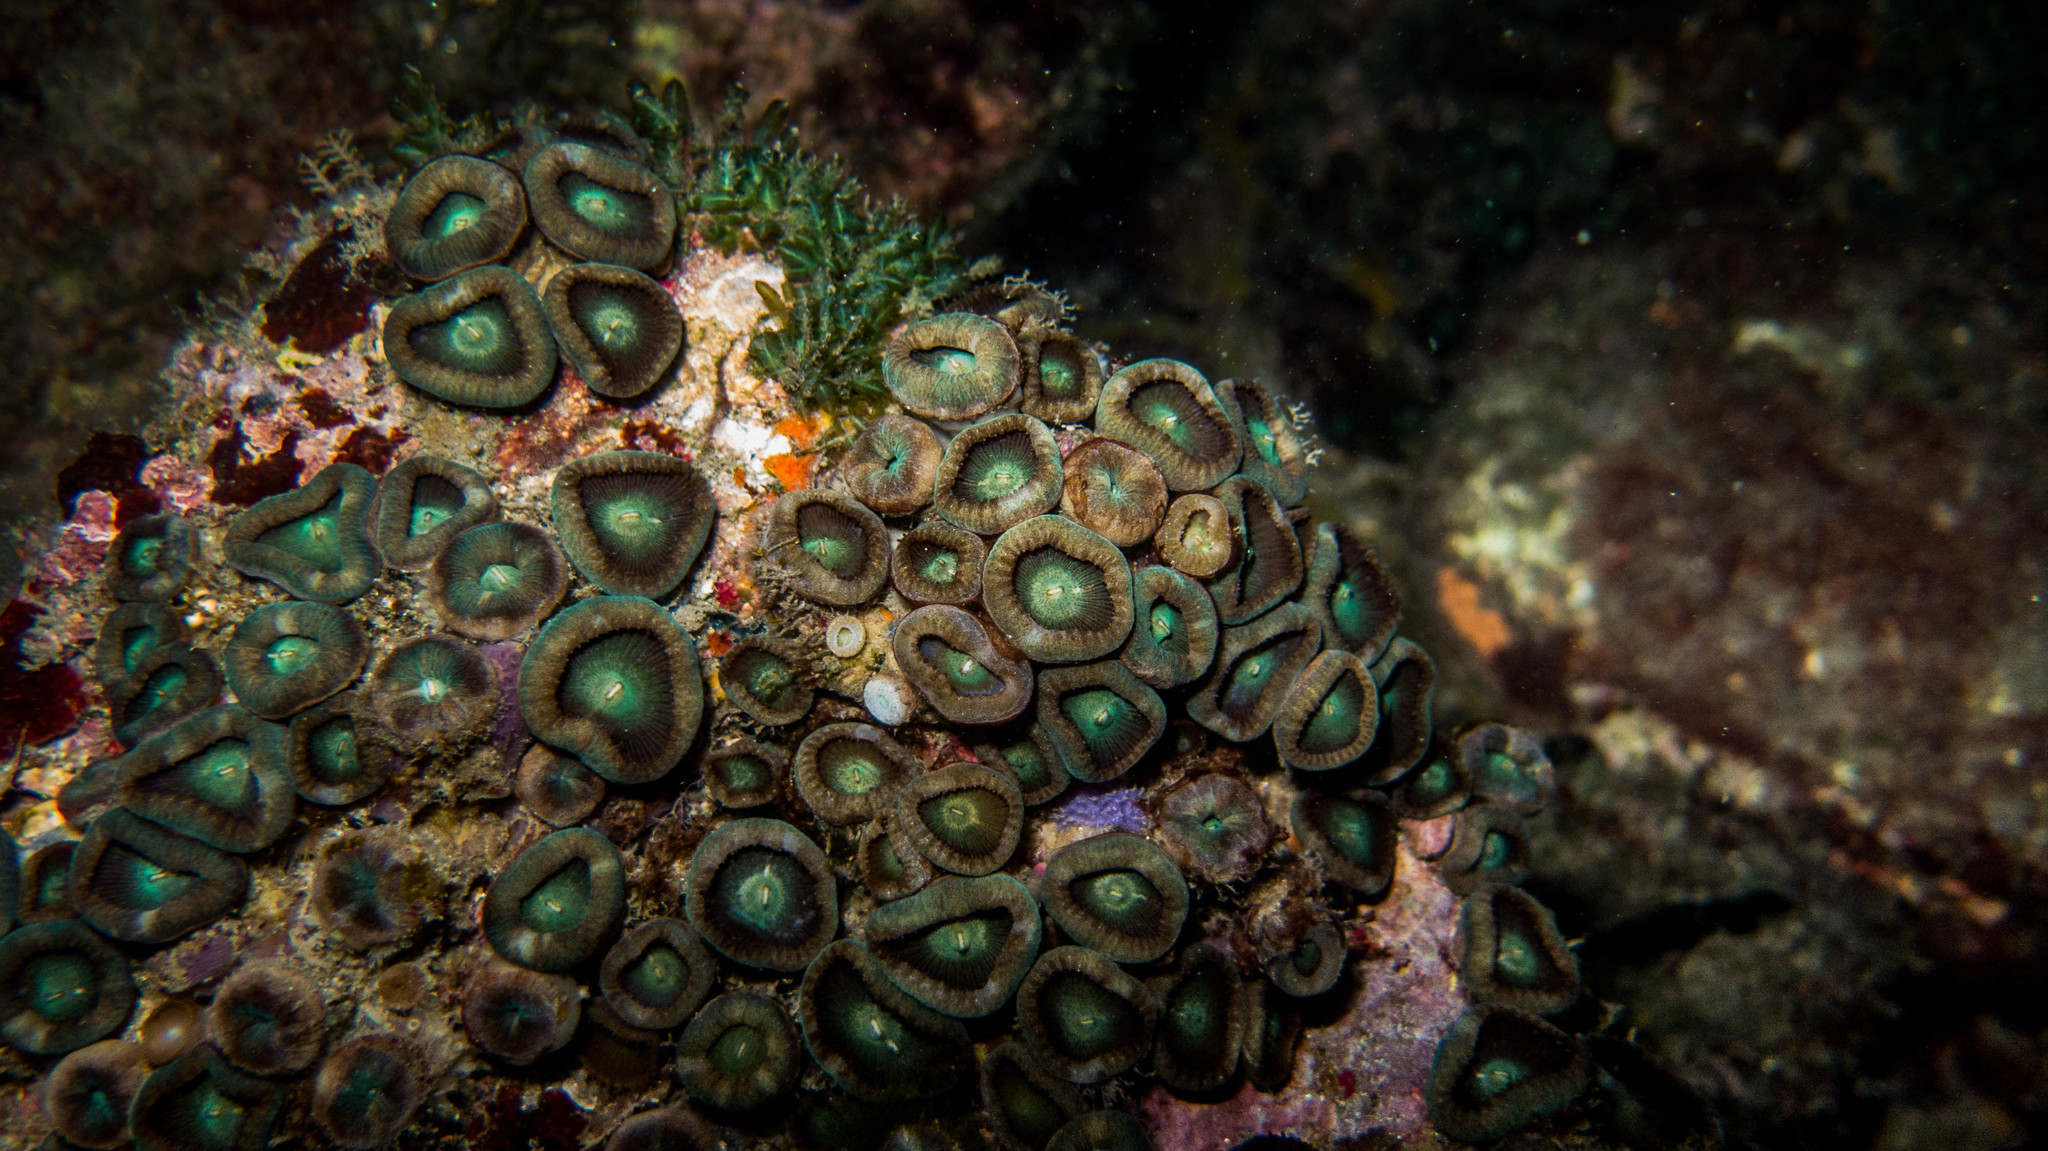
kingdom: Animalia
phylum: Cnidaria
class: Anthozoa
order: Zoantharia
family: Sphenopidae
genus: Palythoa
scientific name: Palythoa grandiflora
